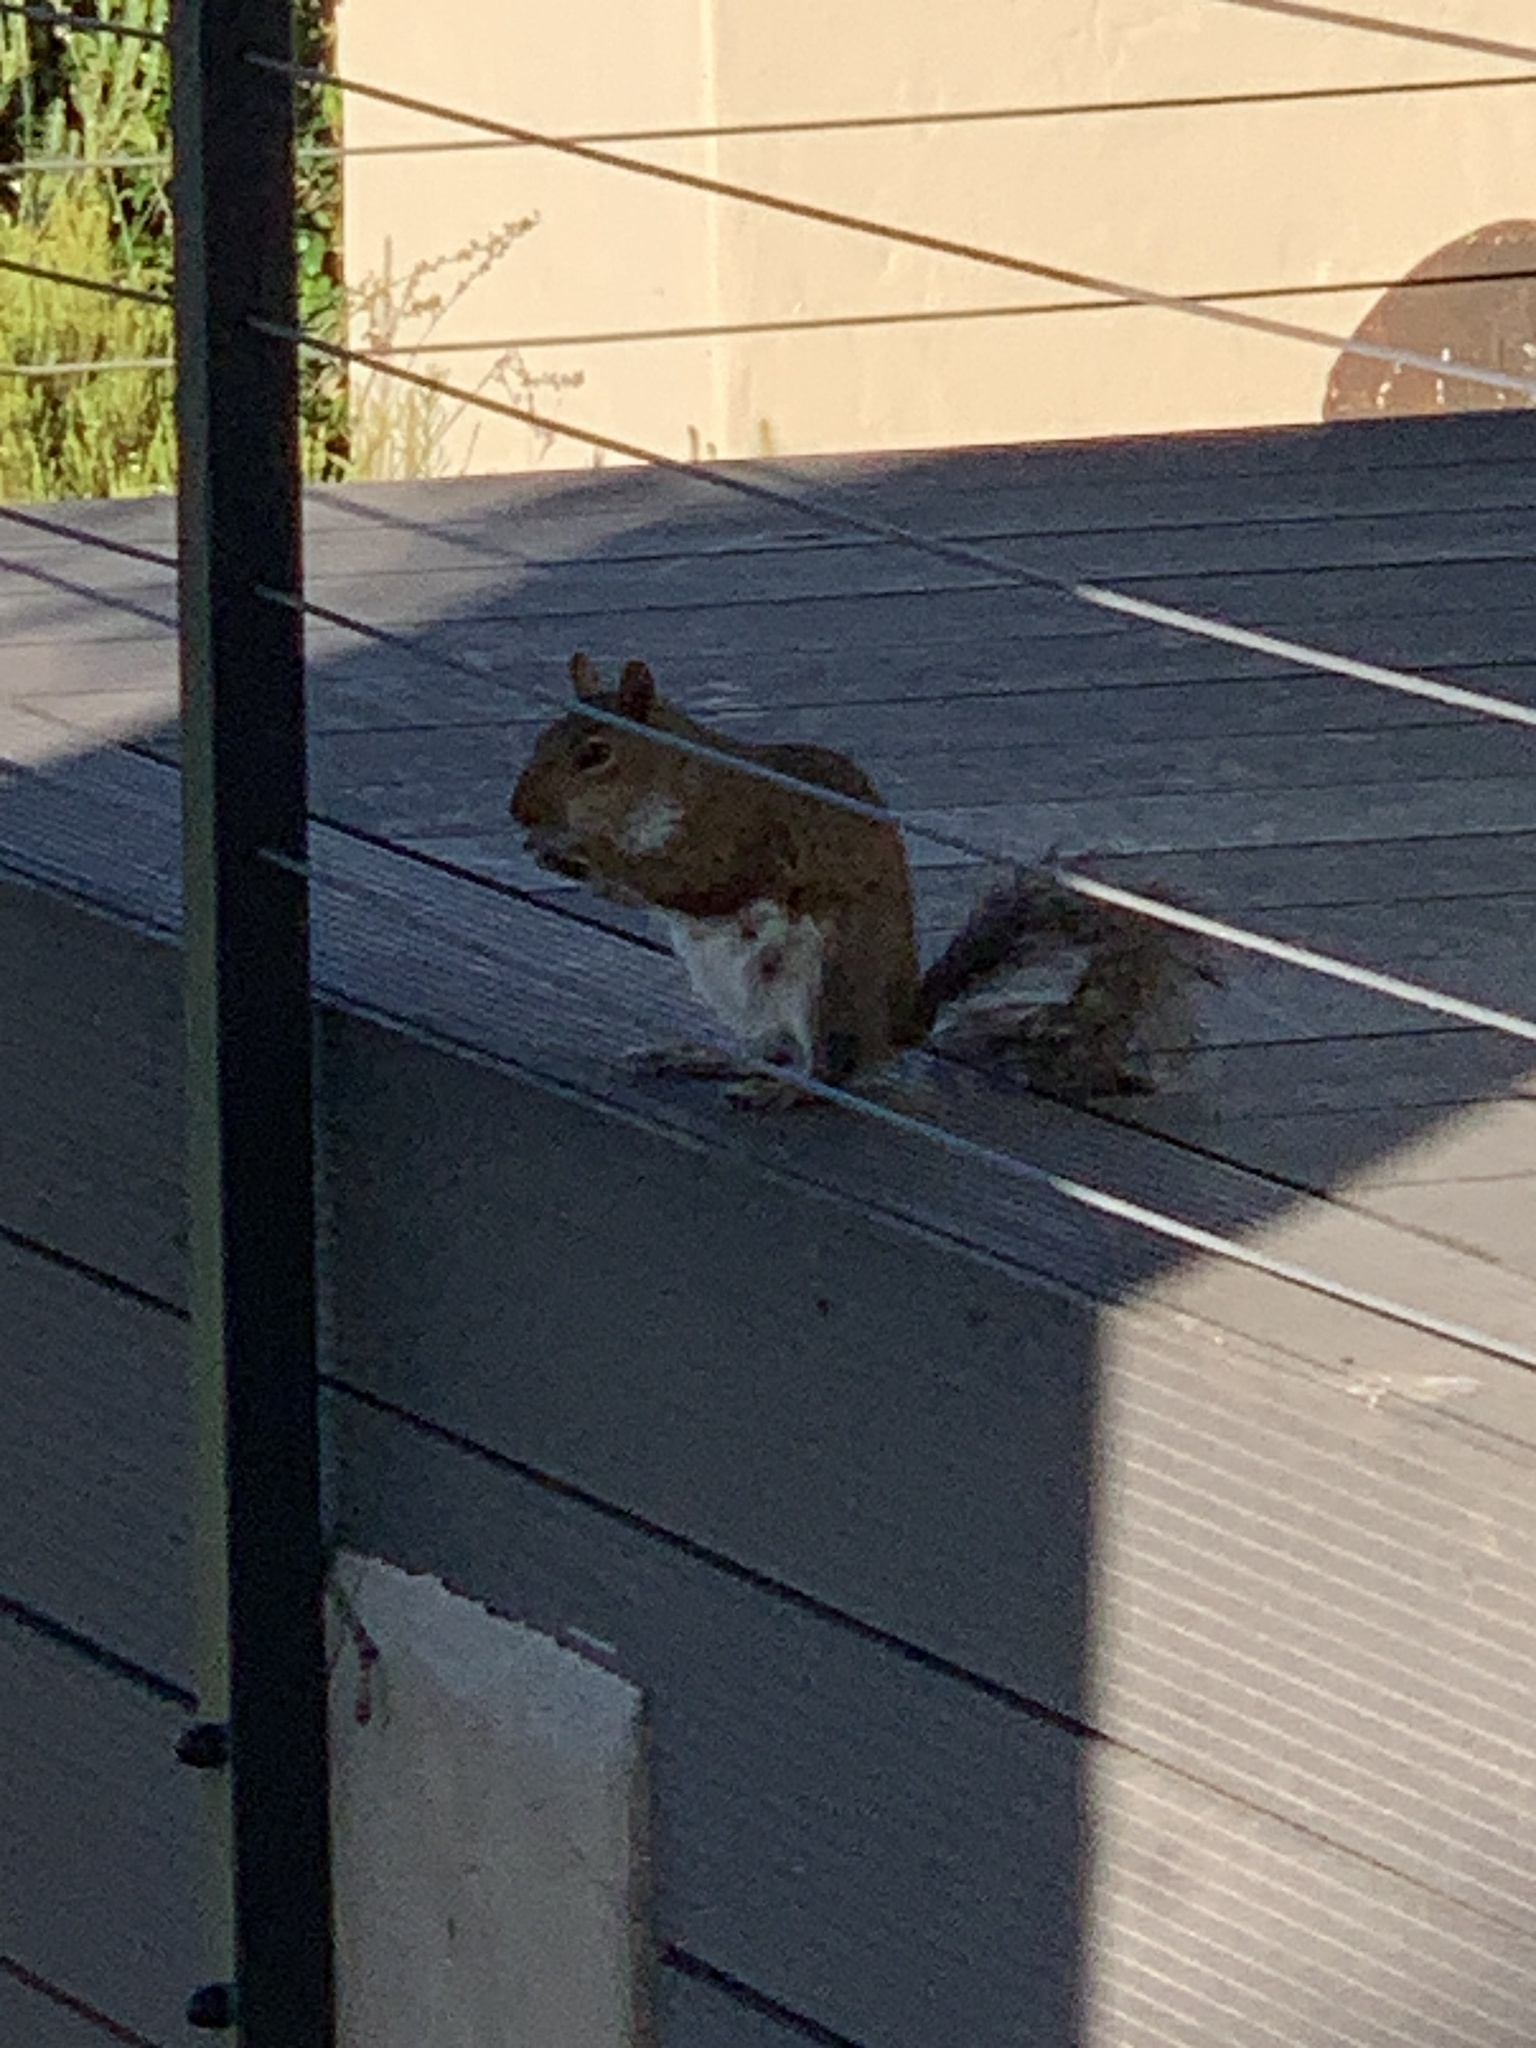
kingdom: Animalia
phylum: Chordata
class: Mammalia
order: Rodentia
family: Sciuridae
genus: Sciurus
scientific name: Sciurus carolinensis
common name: Eastern gray squirrel
